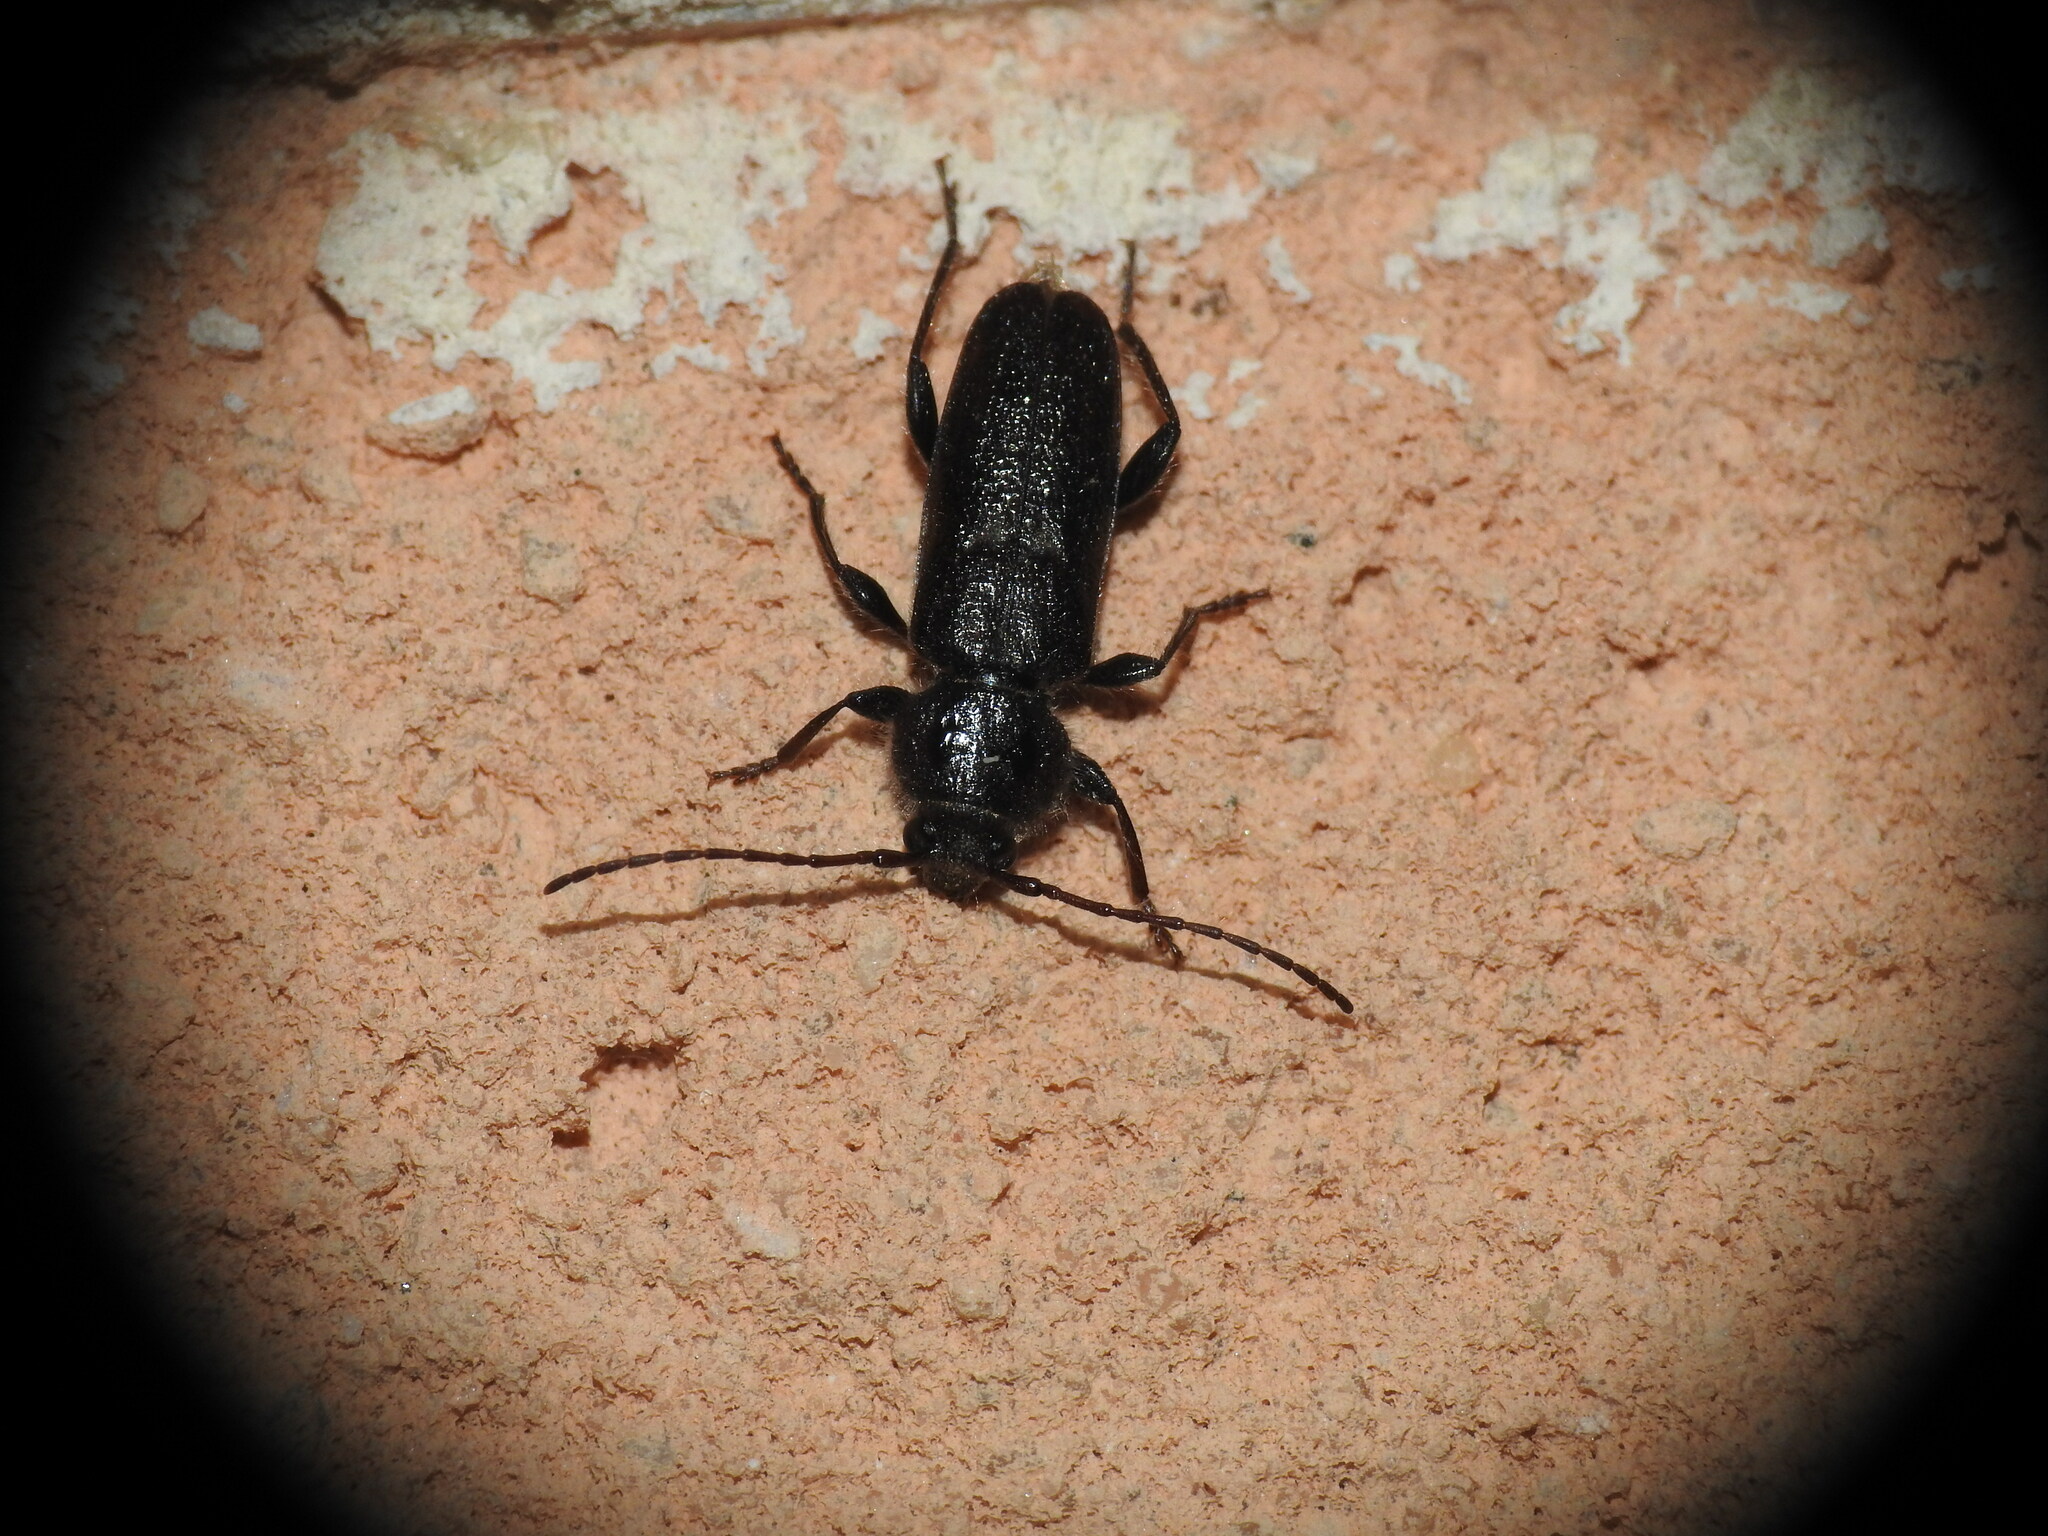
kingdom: Animalia
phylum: Arthropoda
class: Insecta
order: Coleoptera
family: Cerambycidae
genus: Hylotrupes
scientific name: Hylotrupes bajulus
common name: Old house borer
